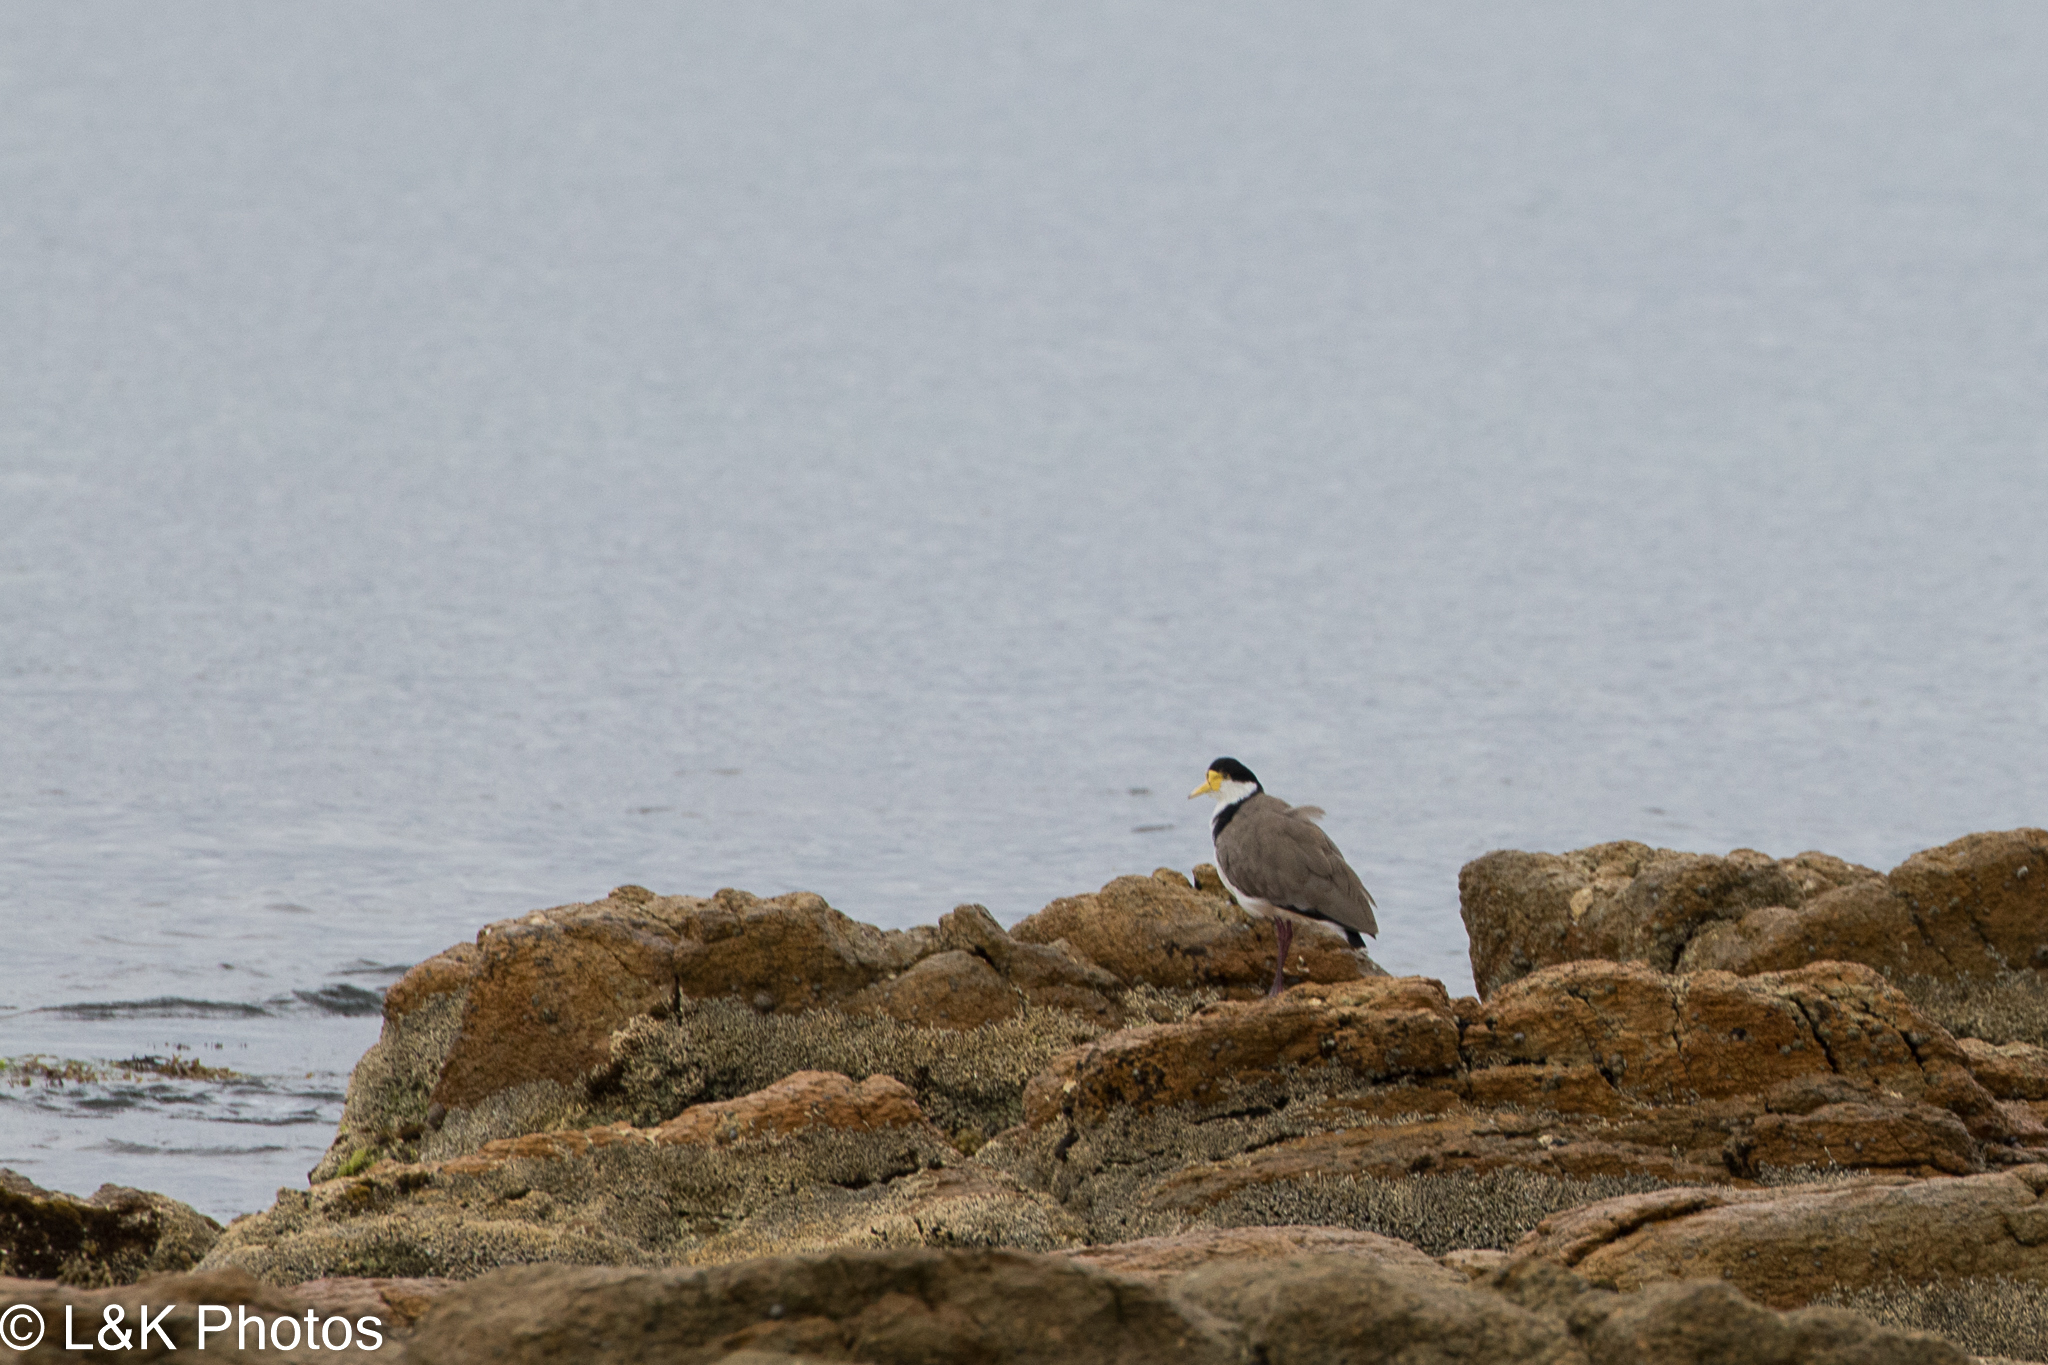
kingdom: Animalia
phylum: Chordata
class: Aves
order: Charadriiformes
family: Charadriidae
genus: Vanellus
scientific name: Vanellus miles
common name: Masked lapwing
